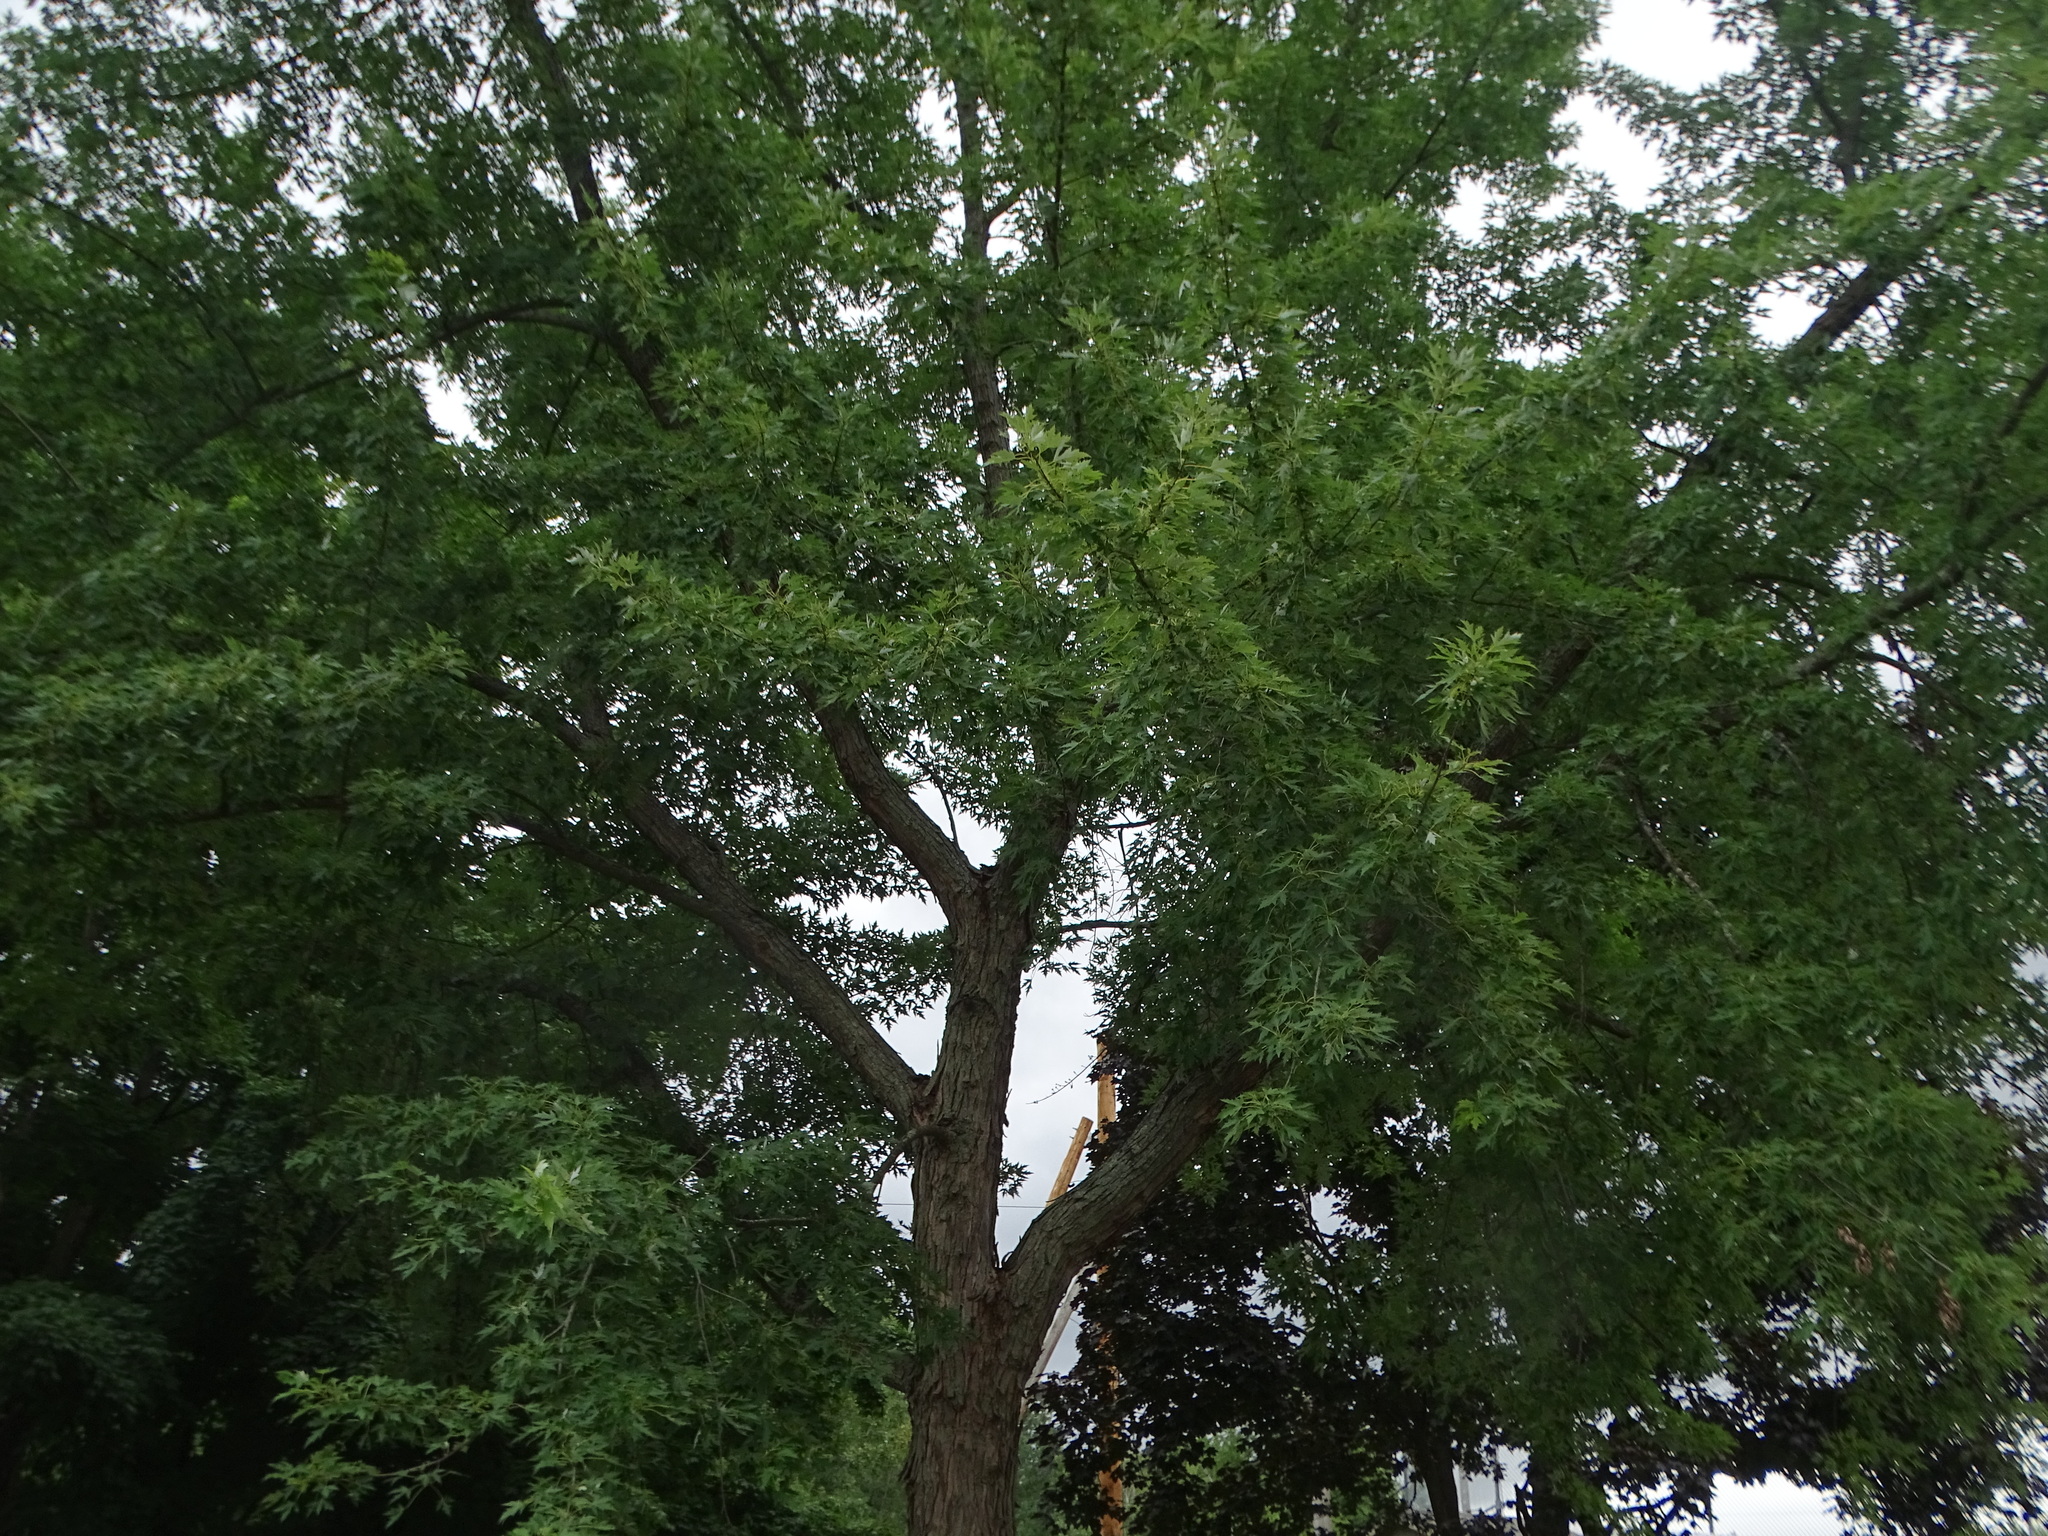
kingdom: Plantae
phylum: Tracheophyta
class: Magnoliopsida
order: Sapindales
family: Sapindaceae
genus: Acer
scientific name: Acer saccharinum
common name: Silver maple
